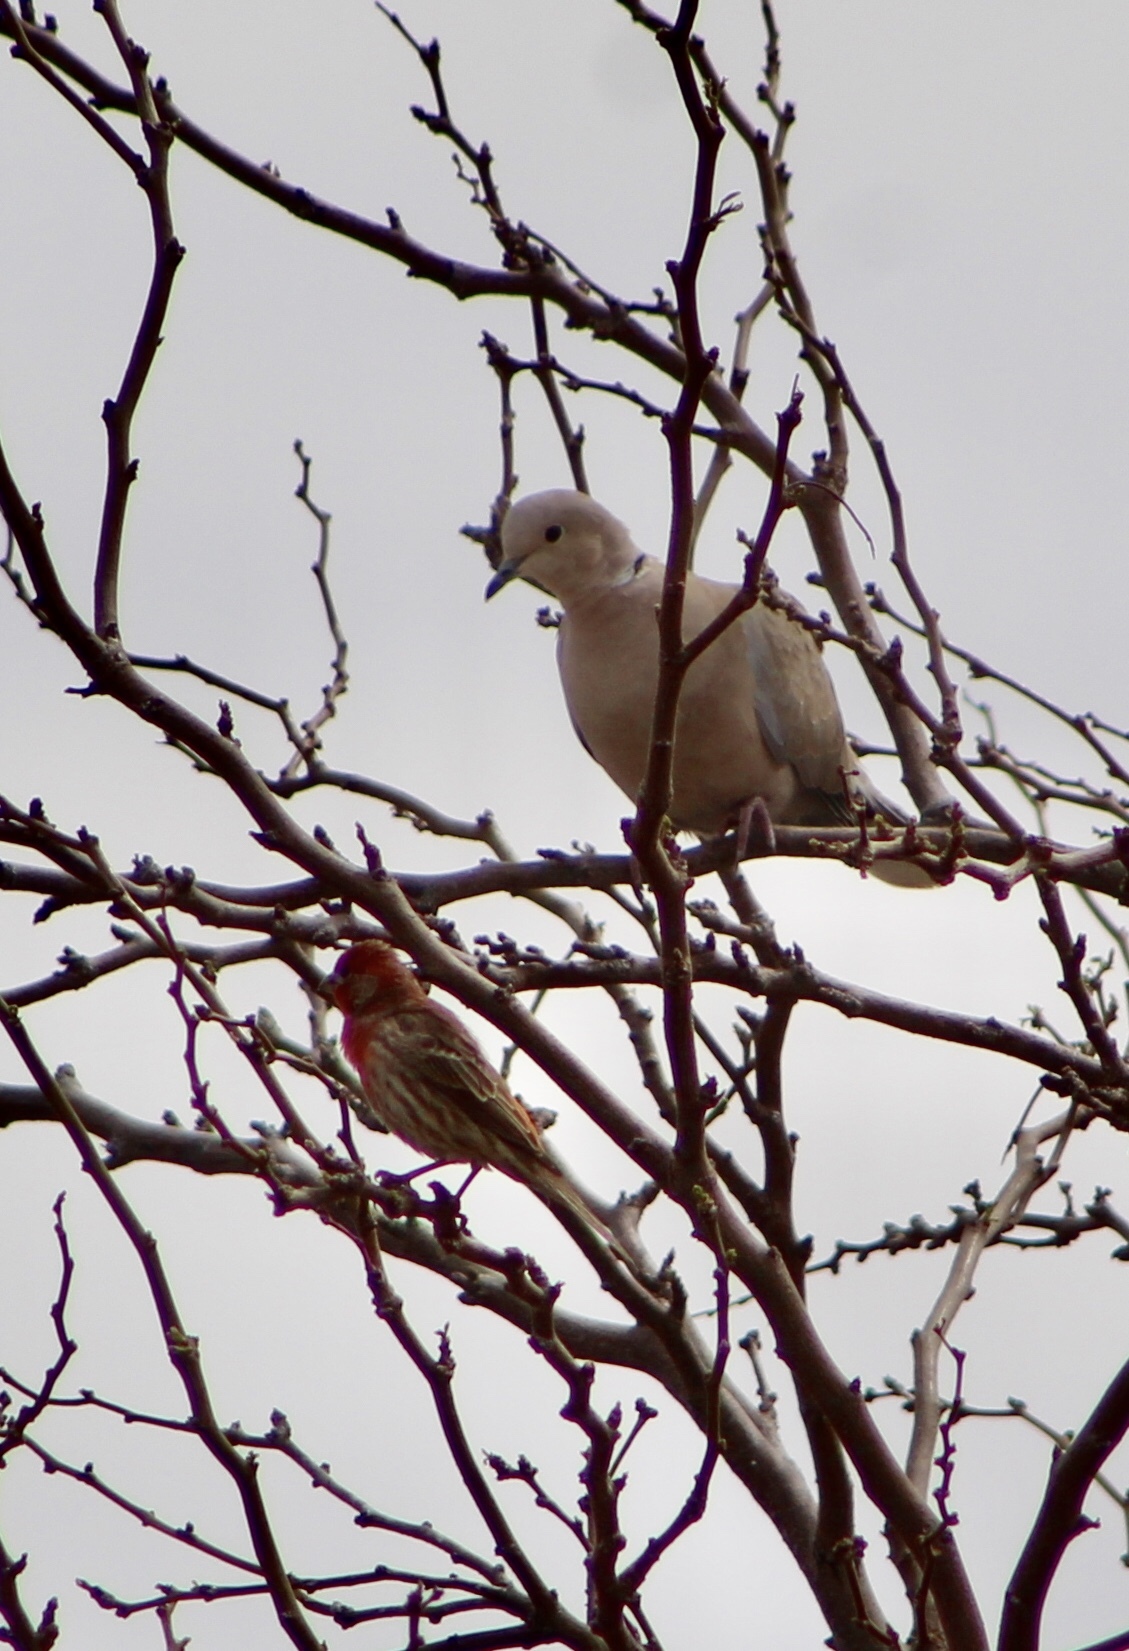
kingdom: Animalia
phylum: Chordata
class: Aves
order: Columbiformes
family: Columbidae
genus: Streptopelia
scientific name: Streptopelia decaocto
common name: Eurasian collared dove
